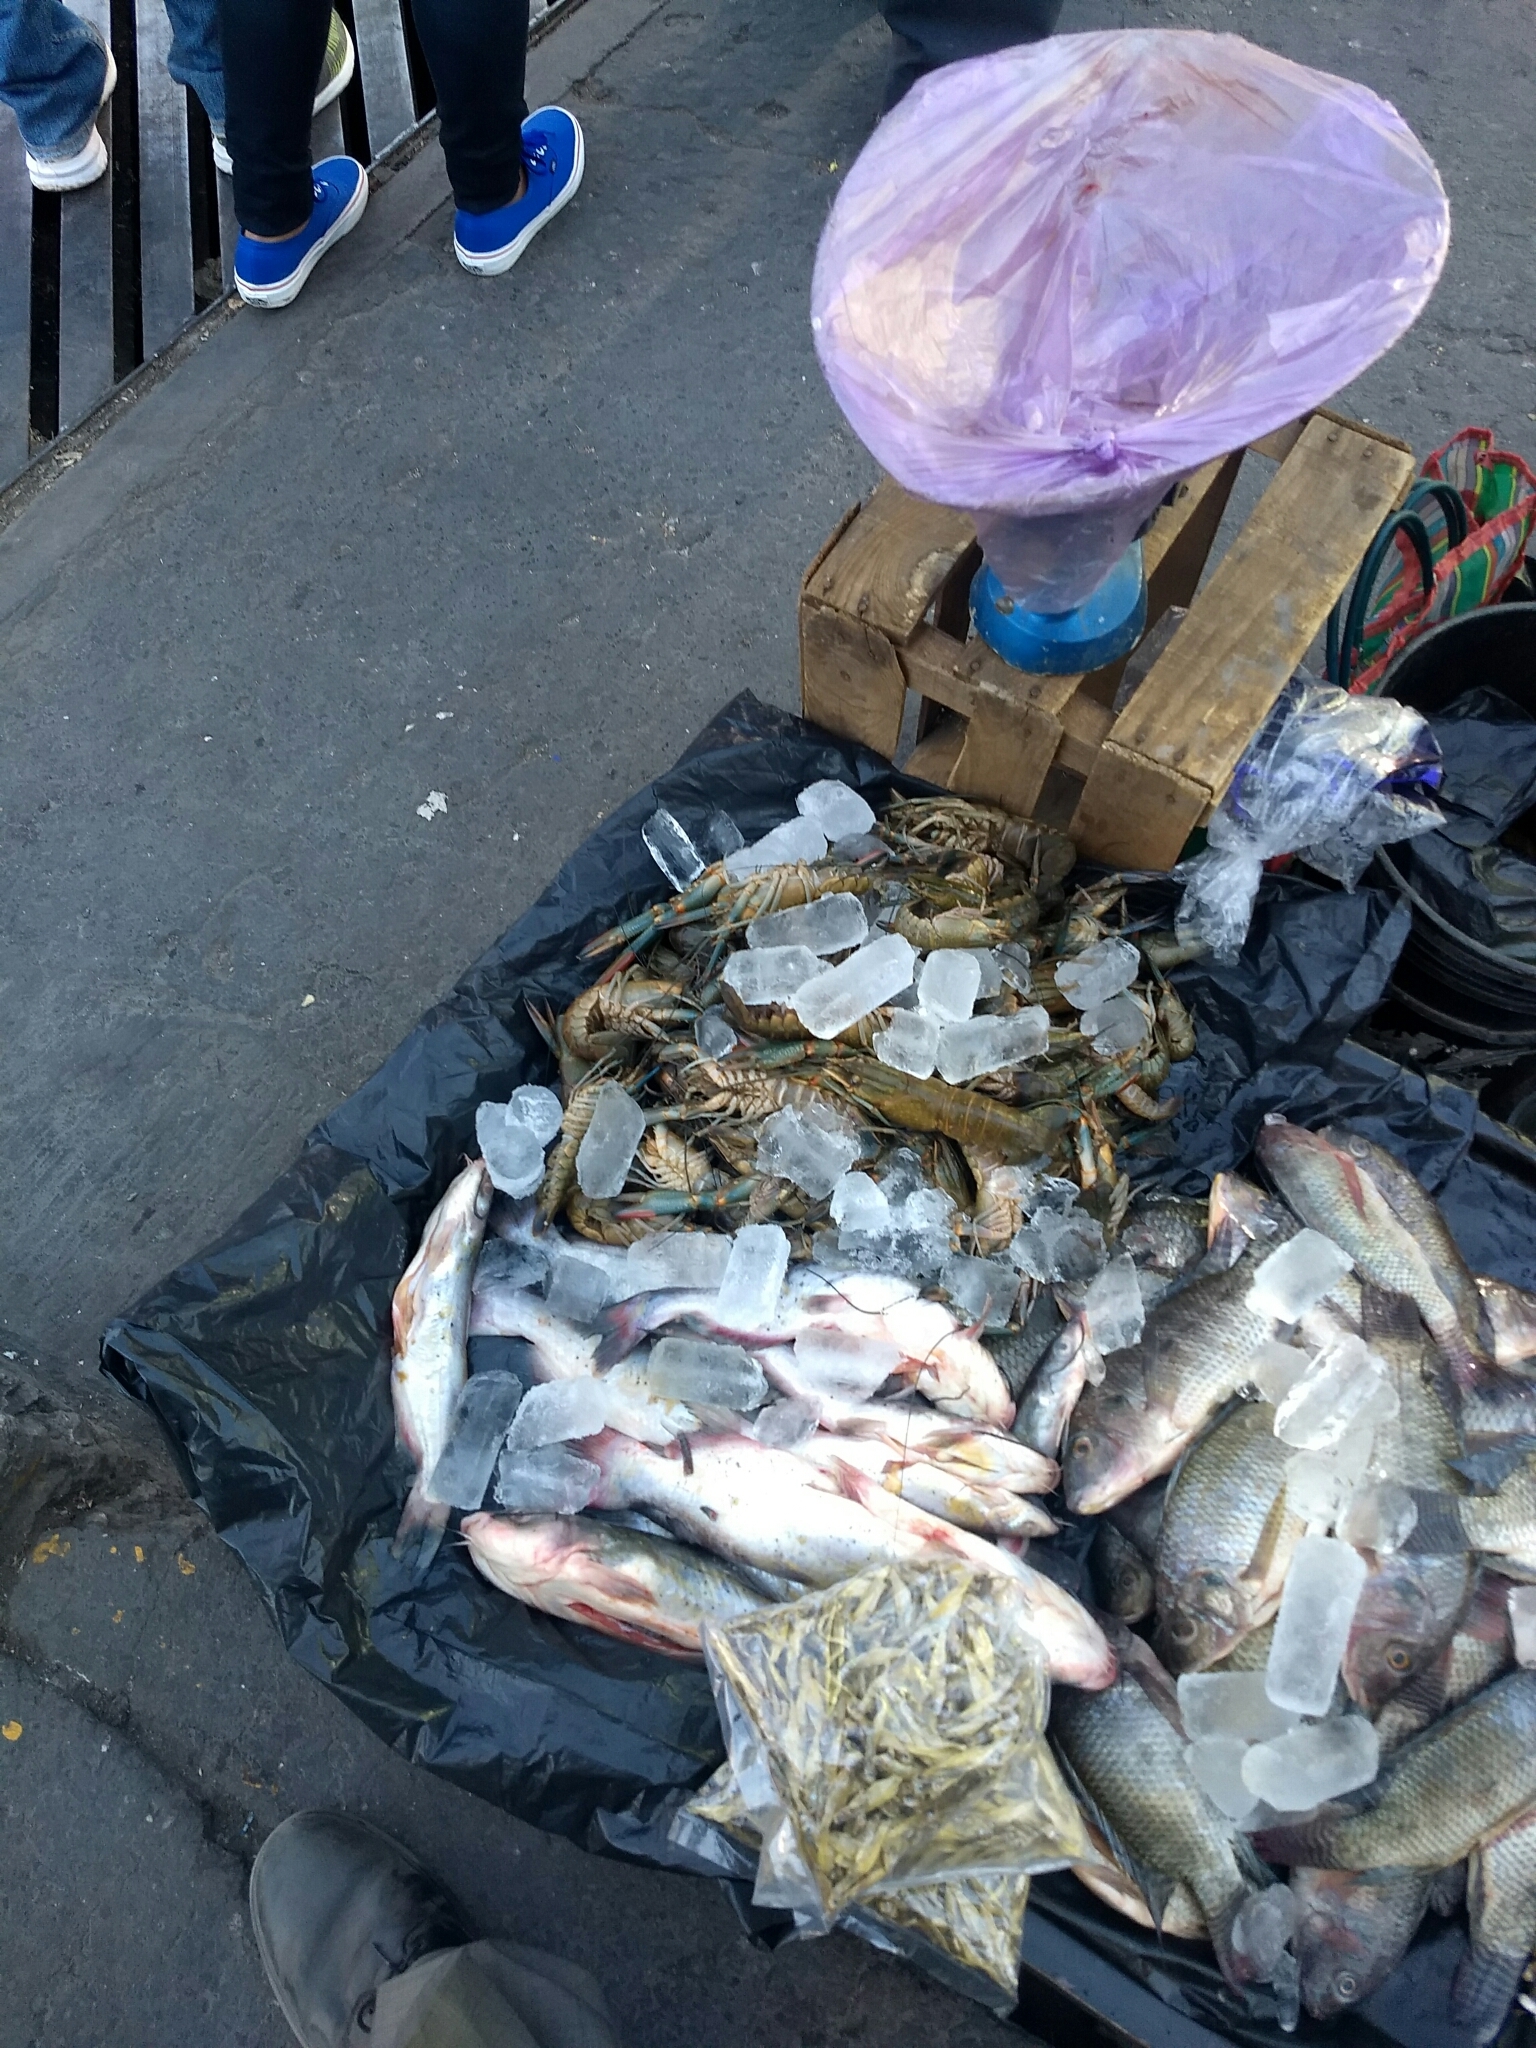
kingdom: Animalia
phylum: Arthropoda
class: Malacostraca
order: Decapoda
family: Parastacidae
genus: Cherax
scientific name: Cherax quadricarinatus
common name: Redclaw
